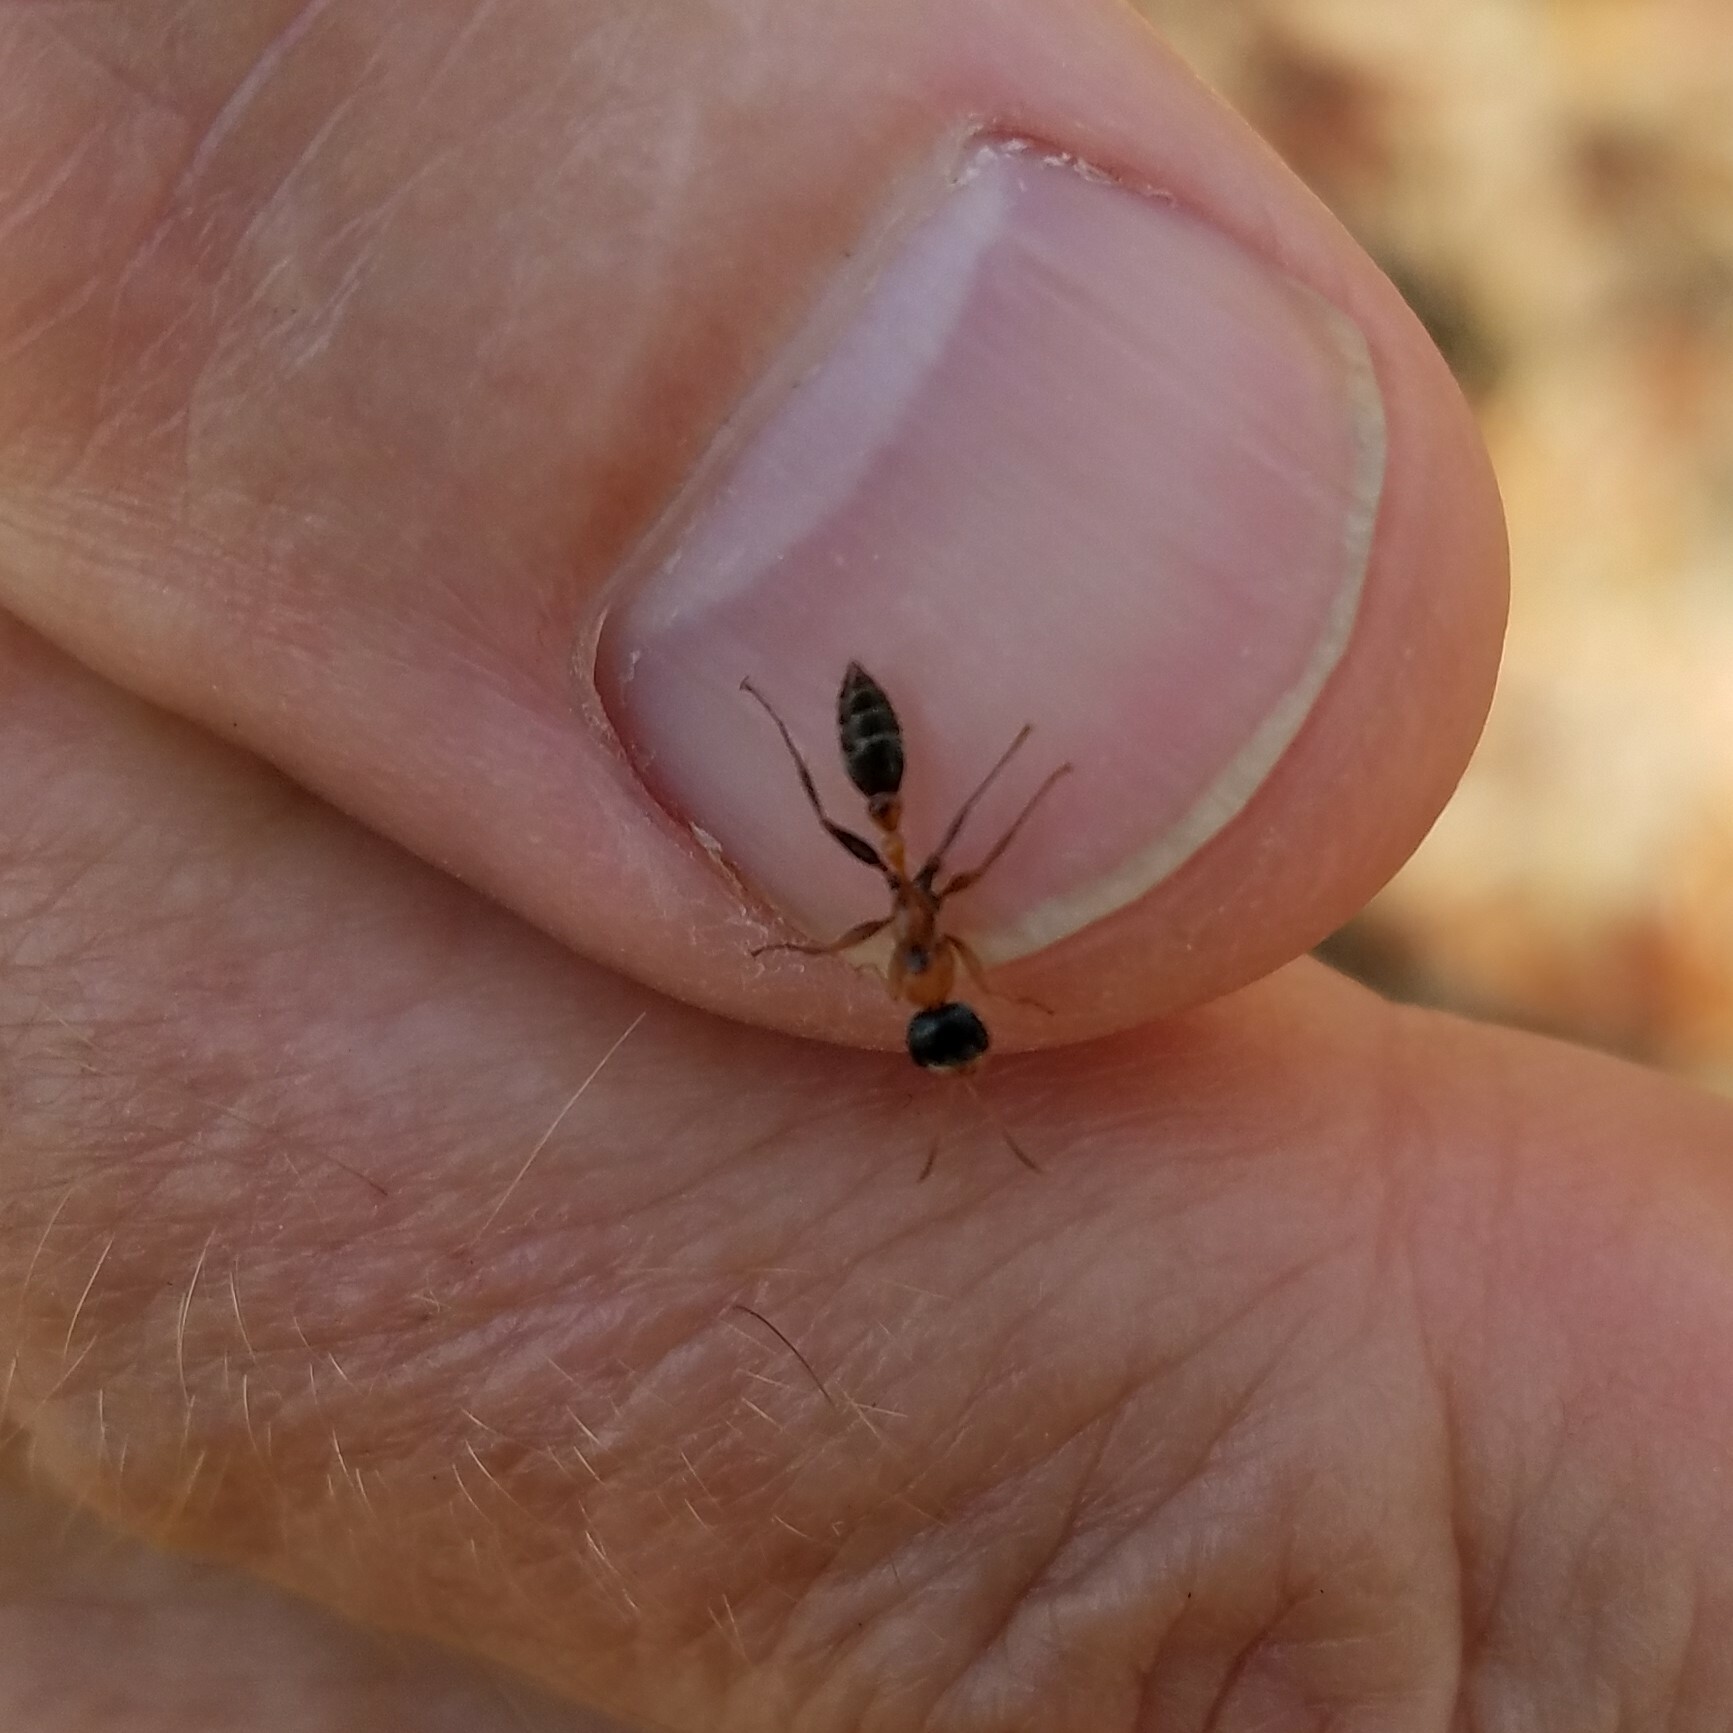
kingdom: Animalia
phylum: Arthropoda
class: Insecta
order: Hymenoptera
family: Formicidae
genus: Pseudomyrmex
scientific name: Pseudomyrmex gracilis
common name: Graceful twig ant
